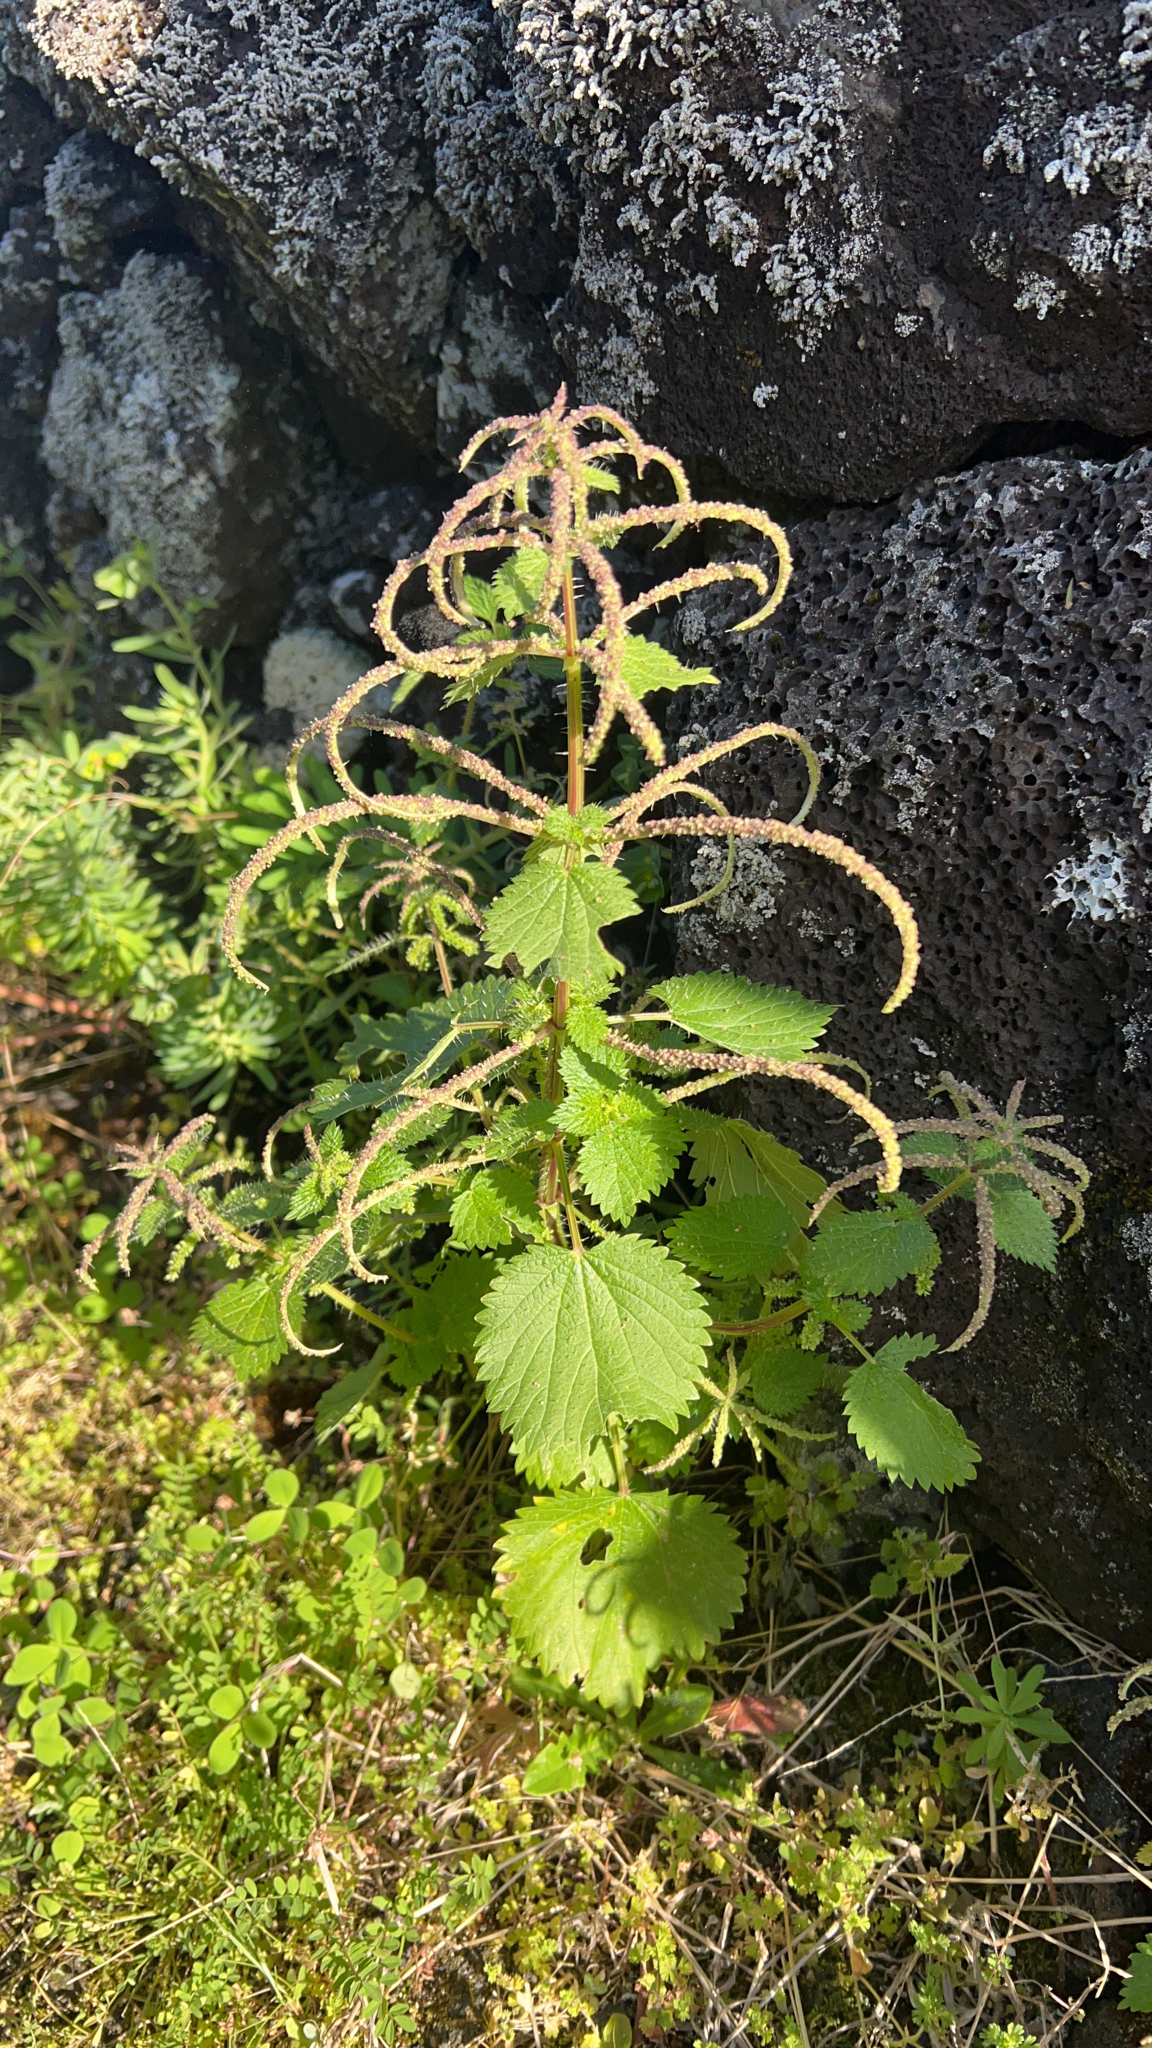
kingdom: Plantae
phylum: Tracheophyta
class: Magnoliopsida
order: Rosales
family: Urticaceae
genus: Urtica
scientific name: Urtica membranacea
